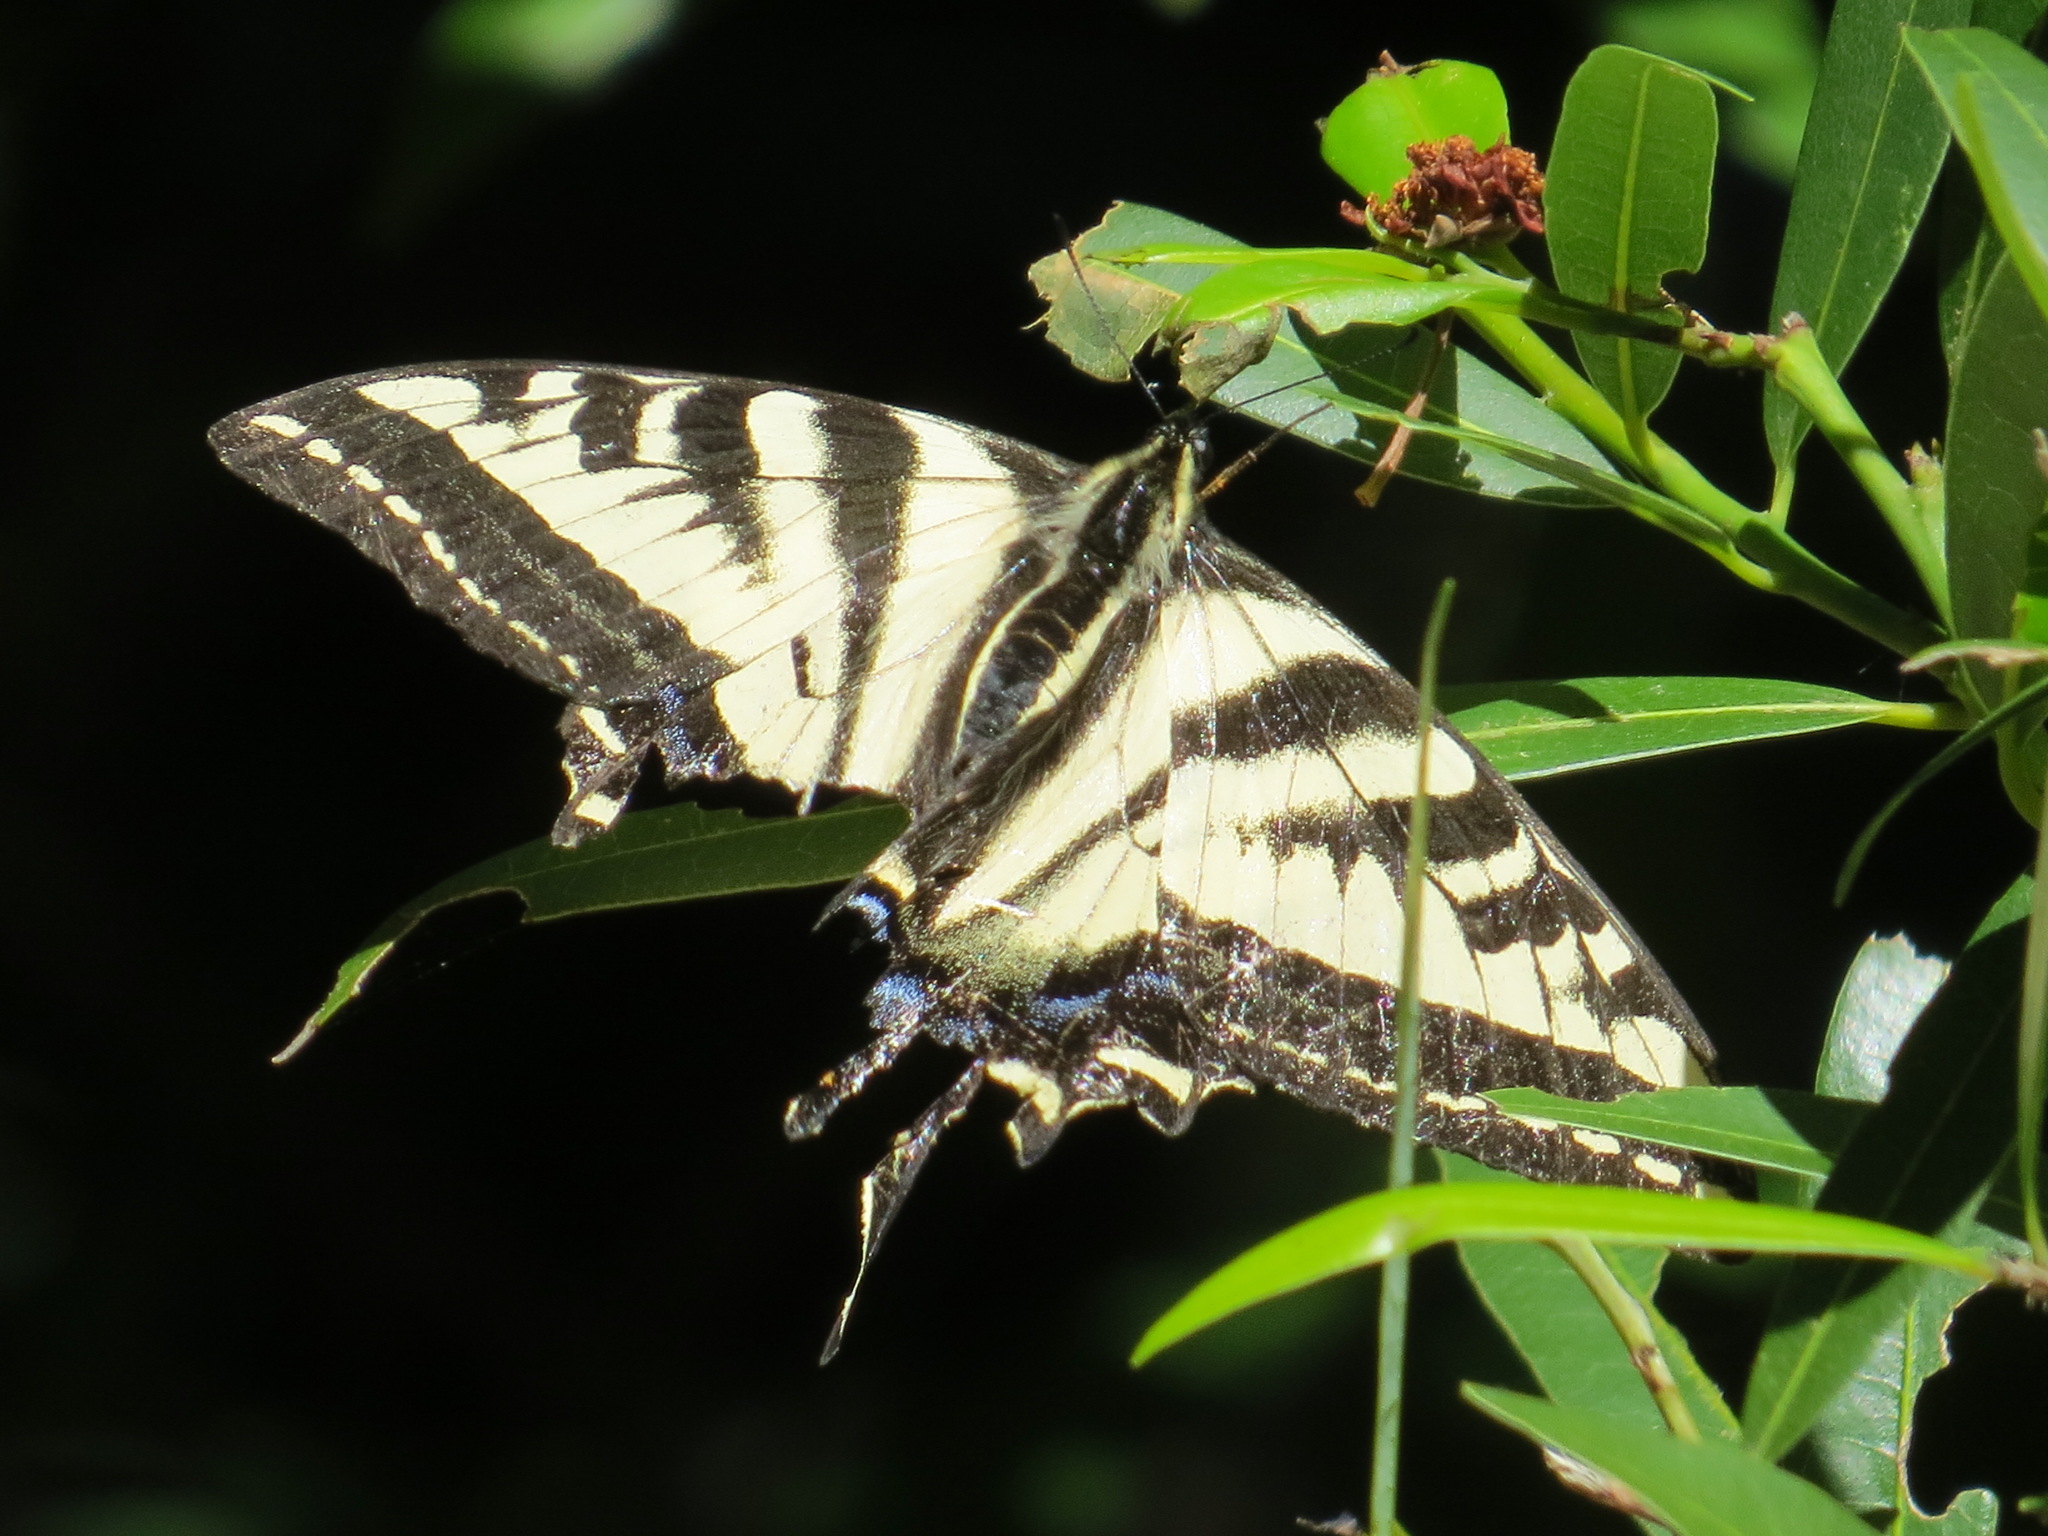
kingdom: Animalia
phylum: Arthropoda
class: Insecta
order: Lepidoptera
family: Papilionidae
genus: Papilio
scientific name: Papilio eurymedon
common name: Pale tiger swallowtail
